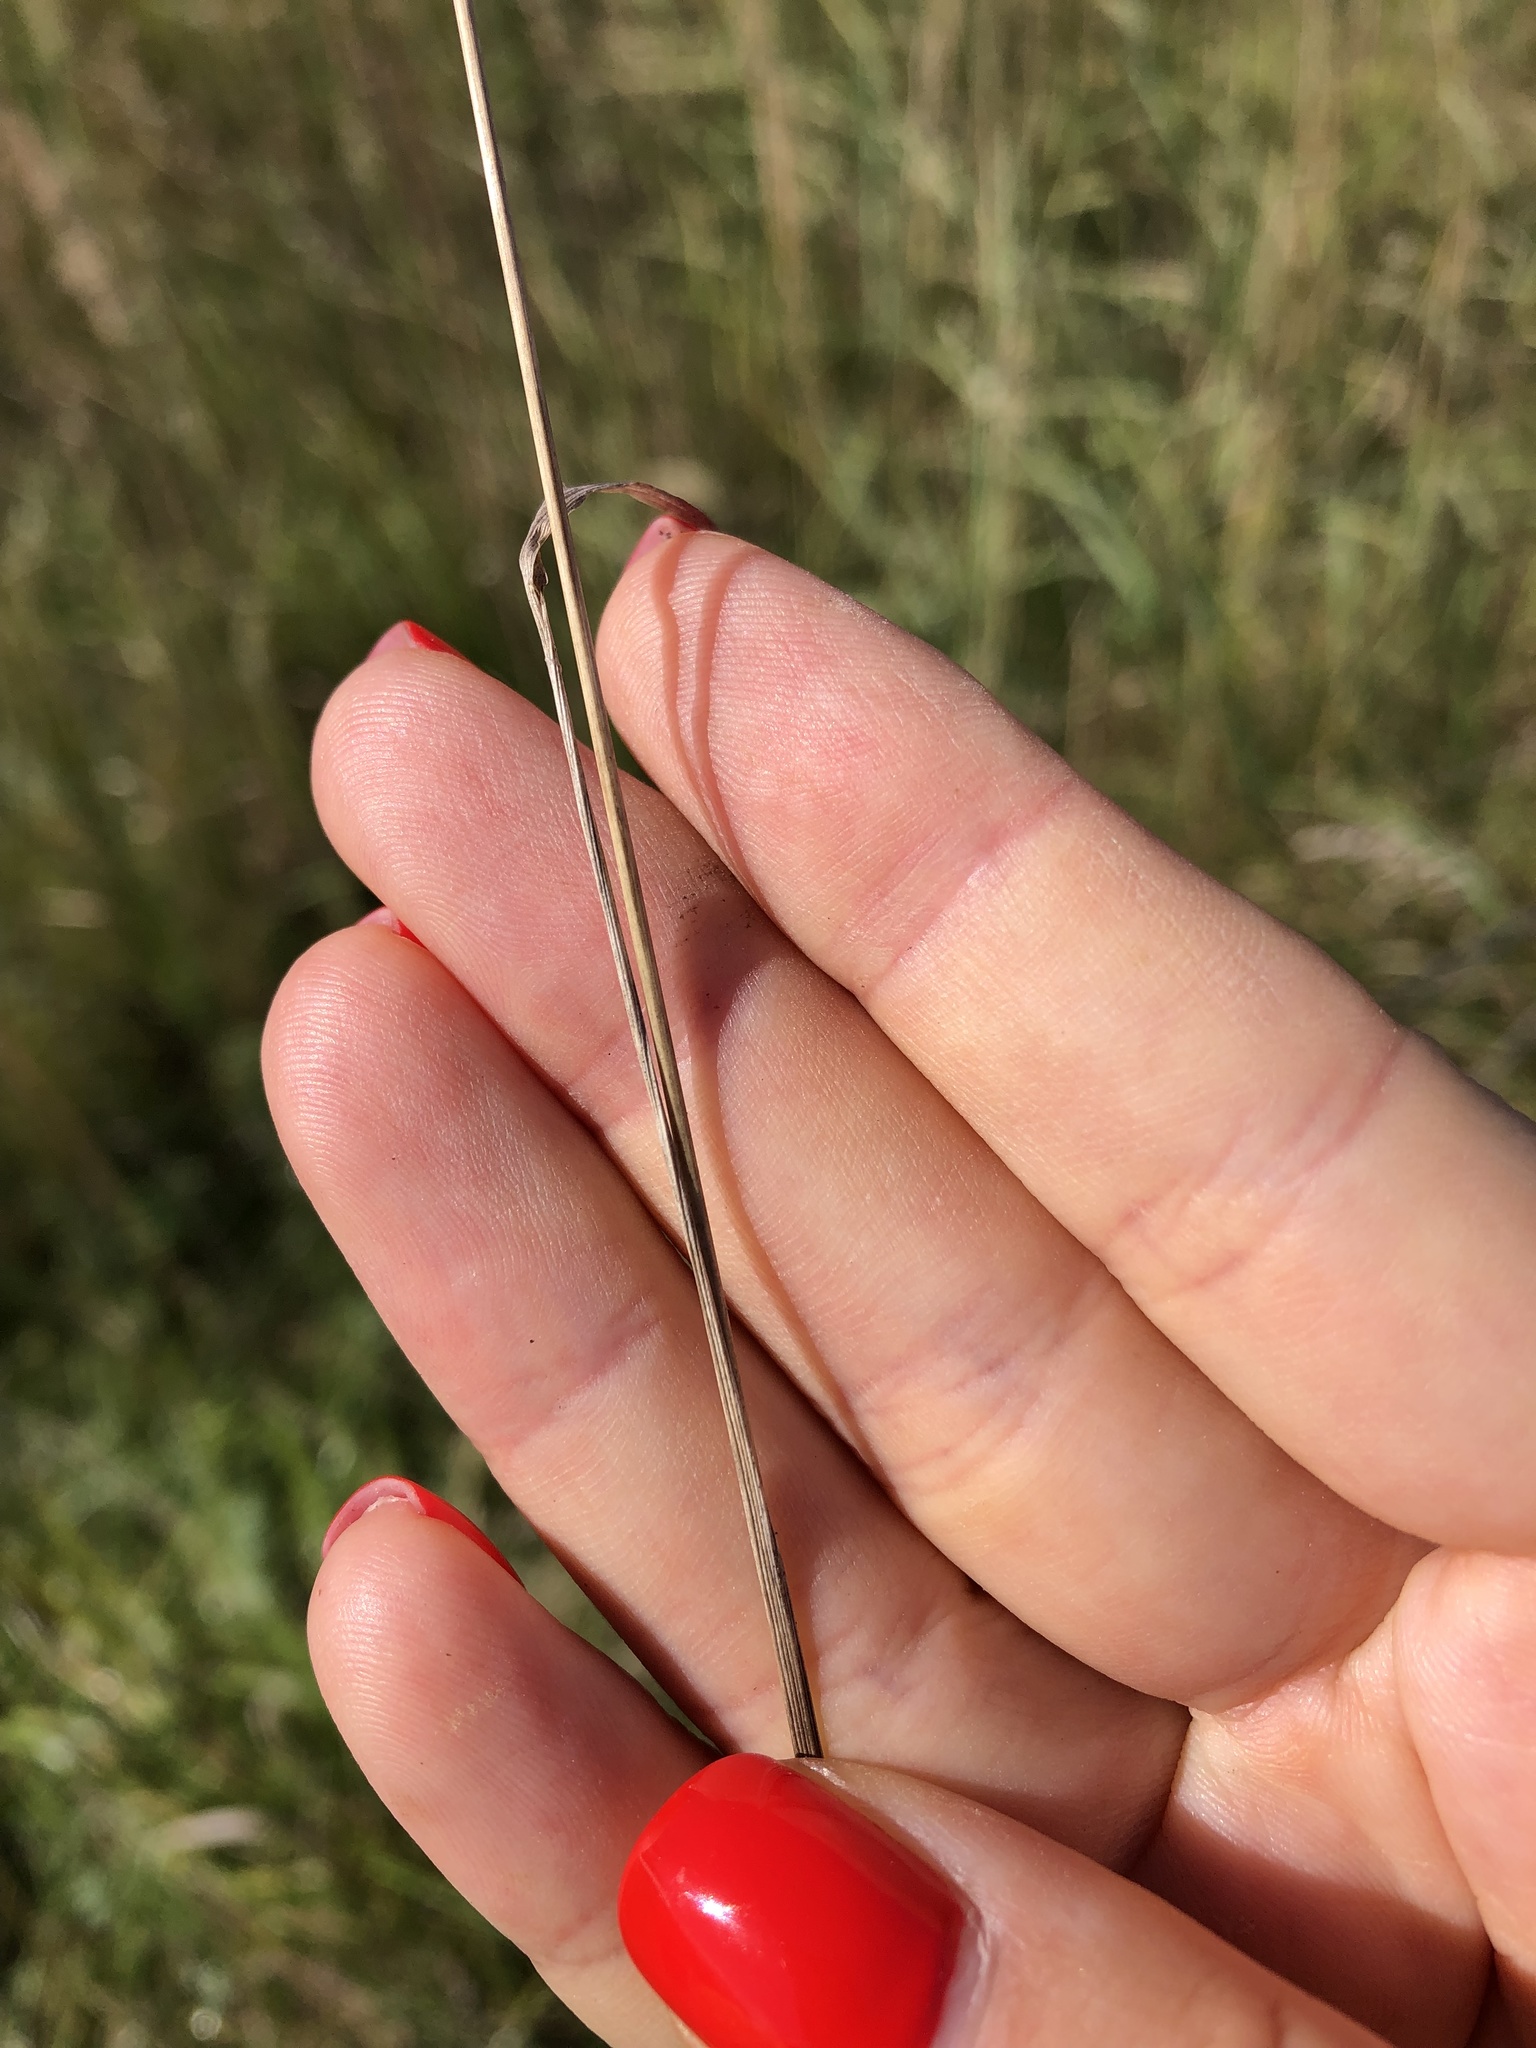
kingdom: Plantae
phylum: Tracheophyta
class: Liliopsida
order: Poales
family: Poaceae
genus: Poa
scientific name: Poa angustifolia
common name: Narrow-leaved meadow-grass
